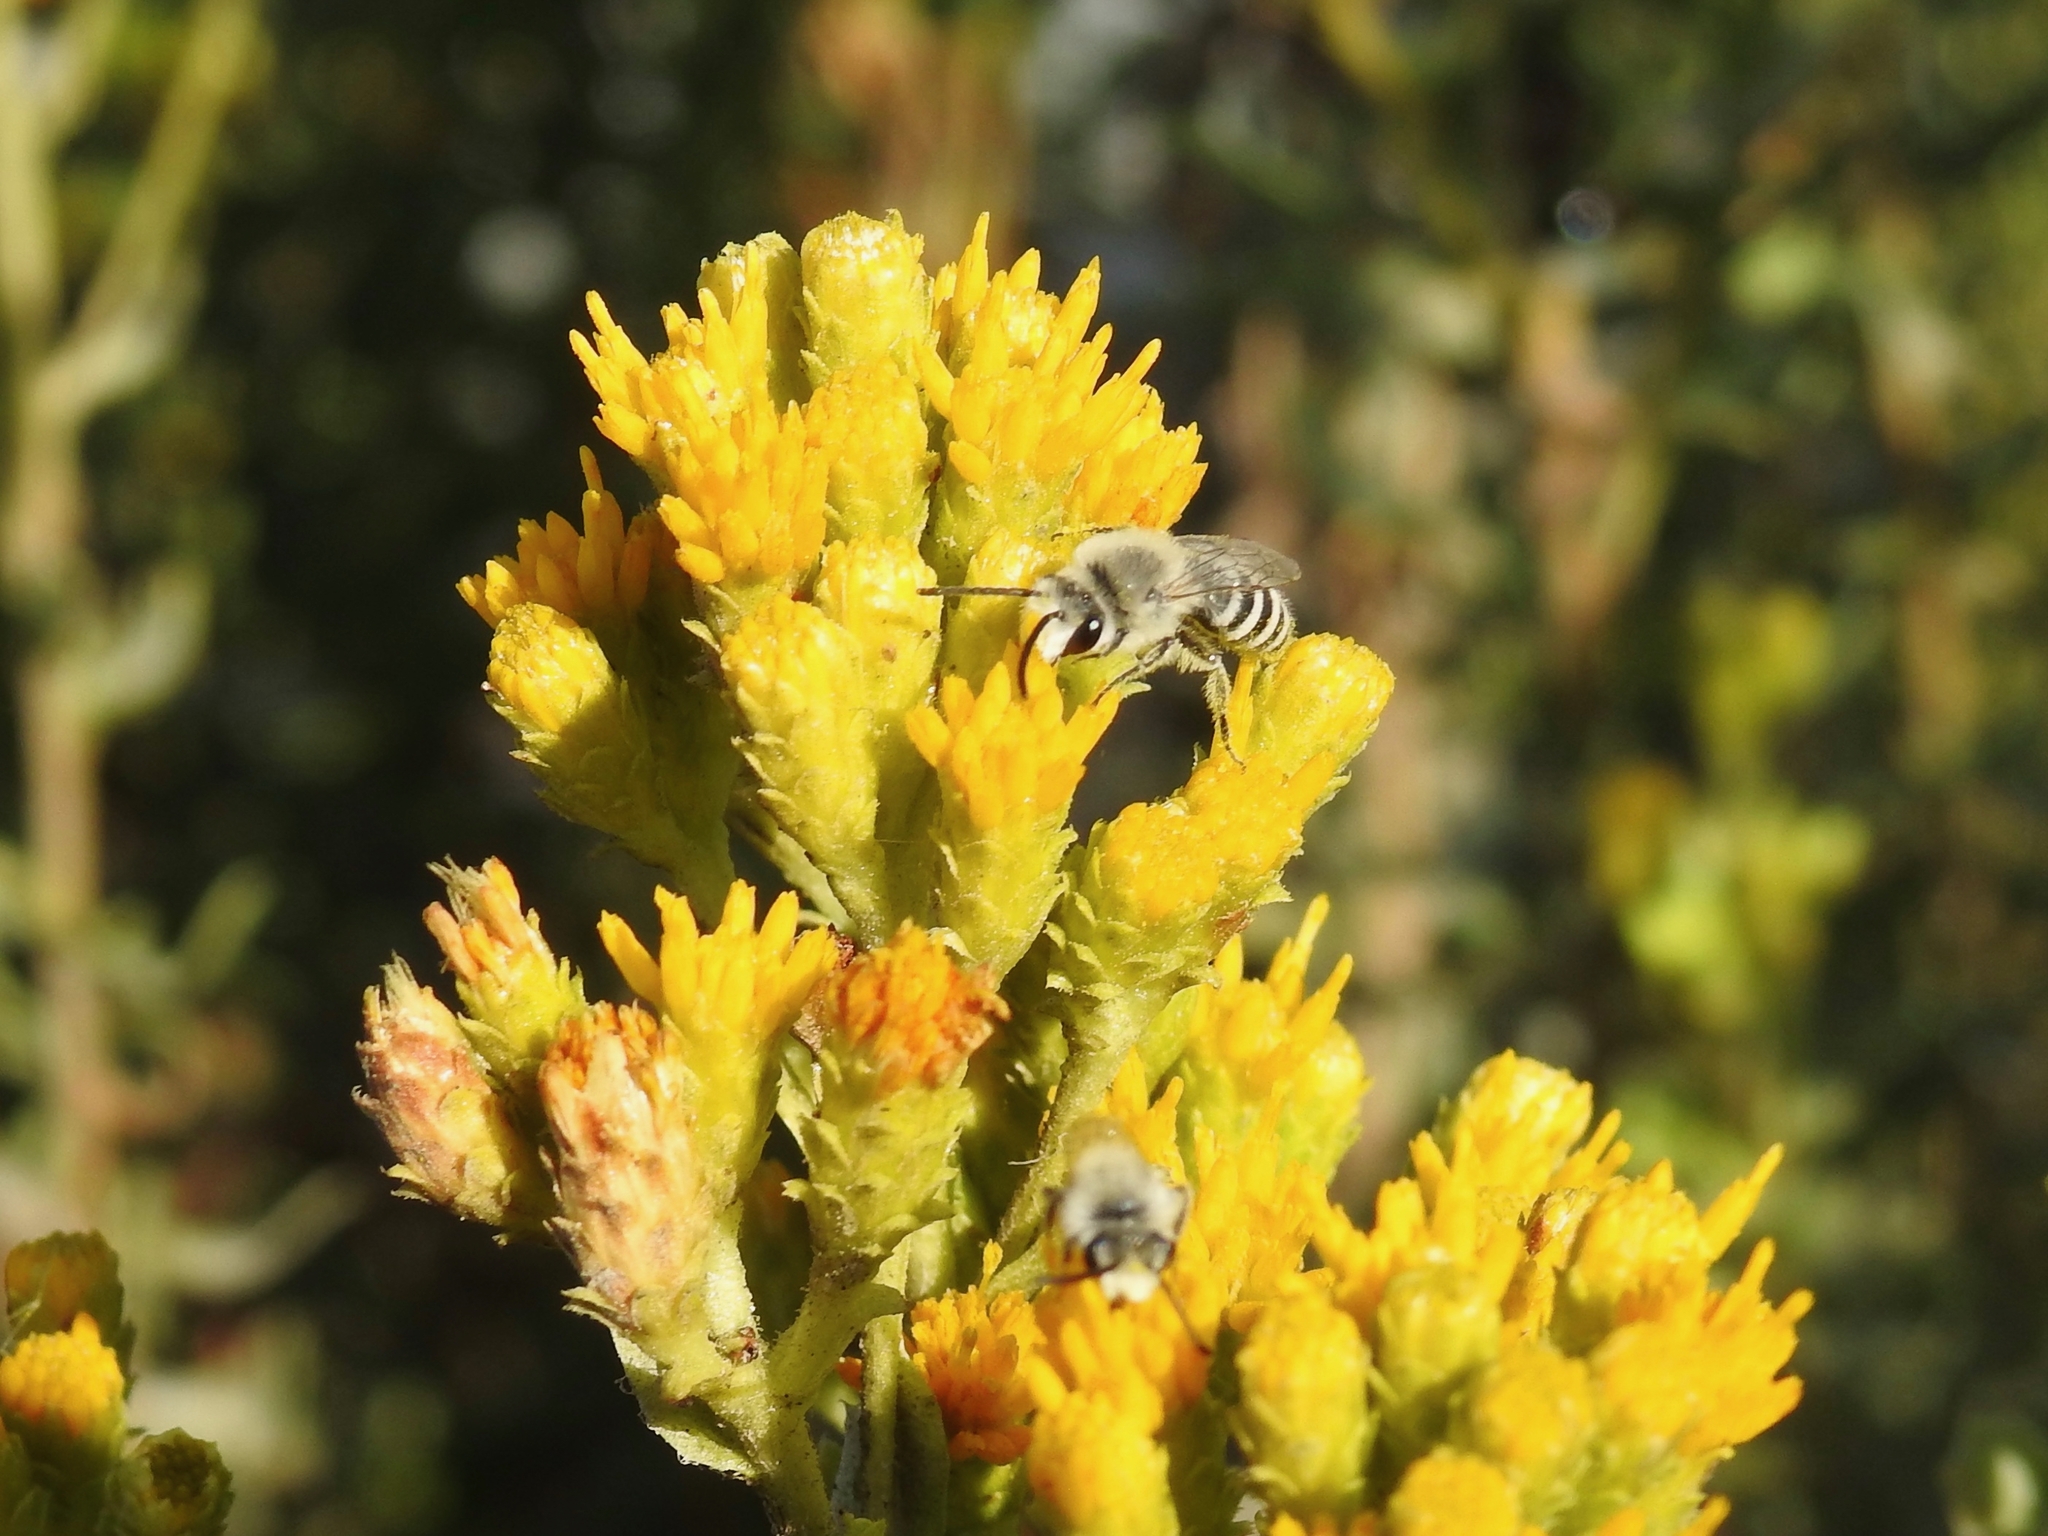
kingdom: Animalia
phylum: Arthropoda
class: Insecta
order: Hymenoptera
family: Colletidae
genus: Colletes
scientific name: Colletes
